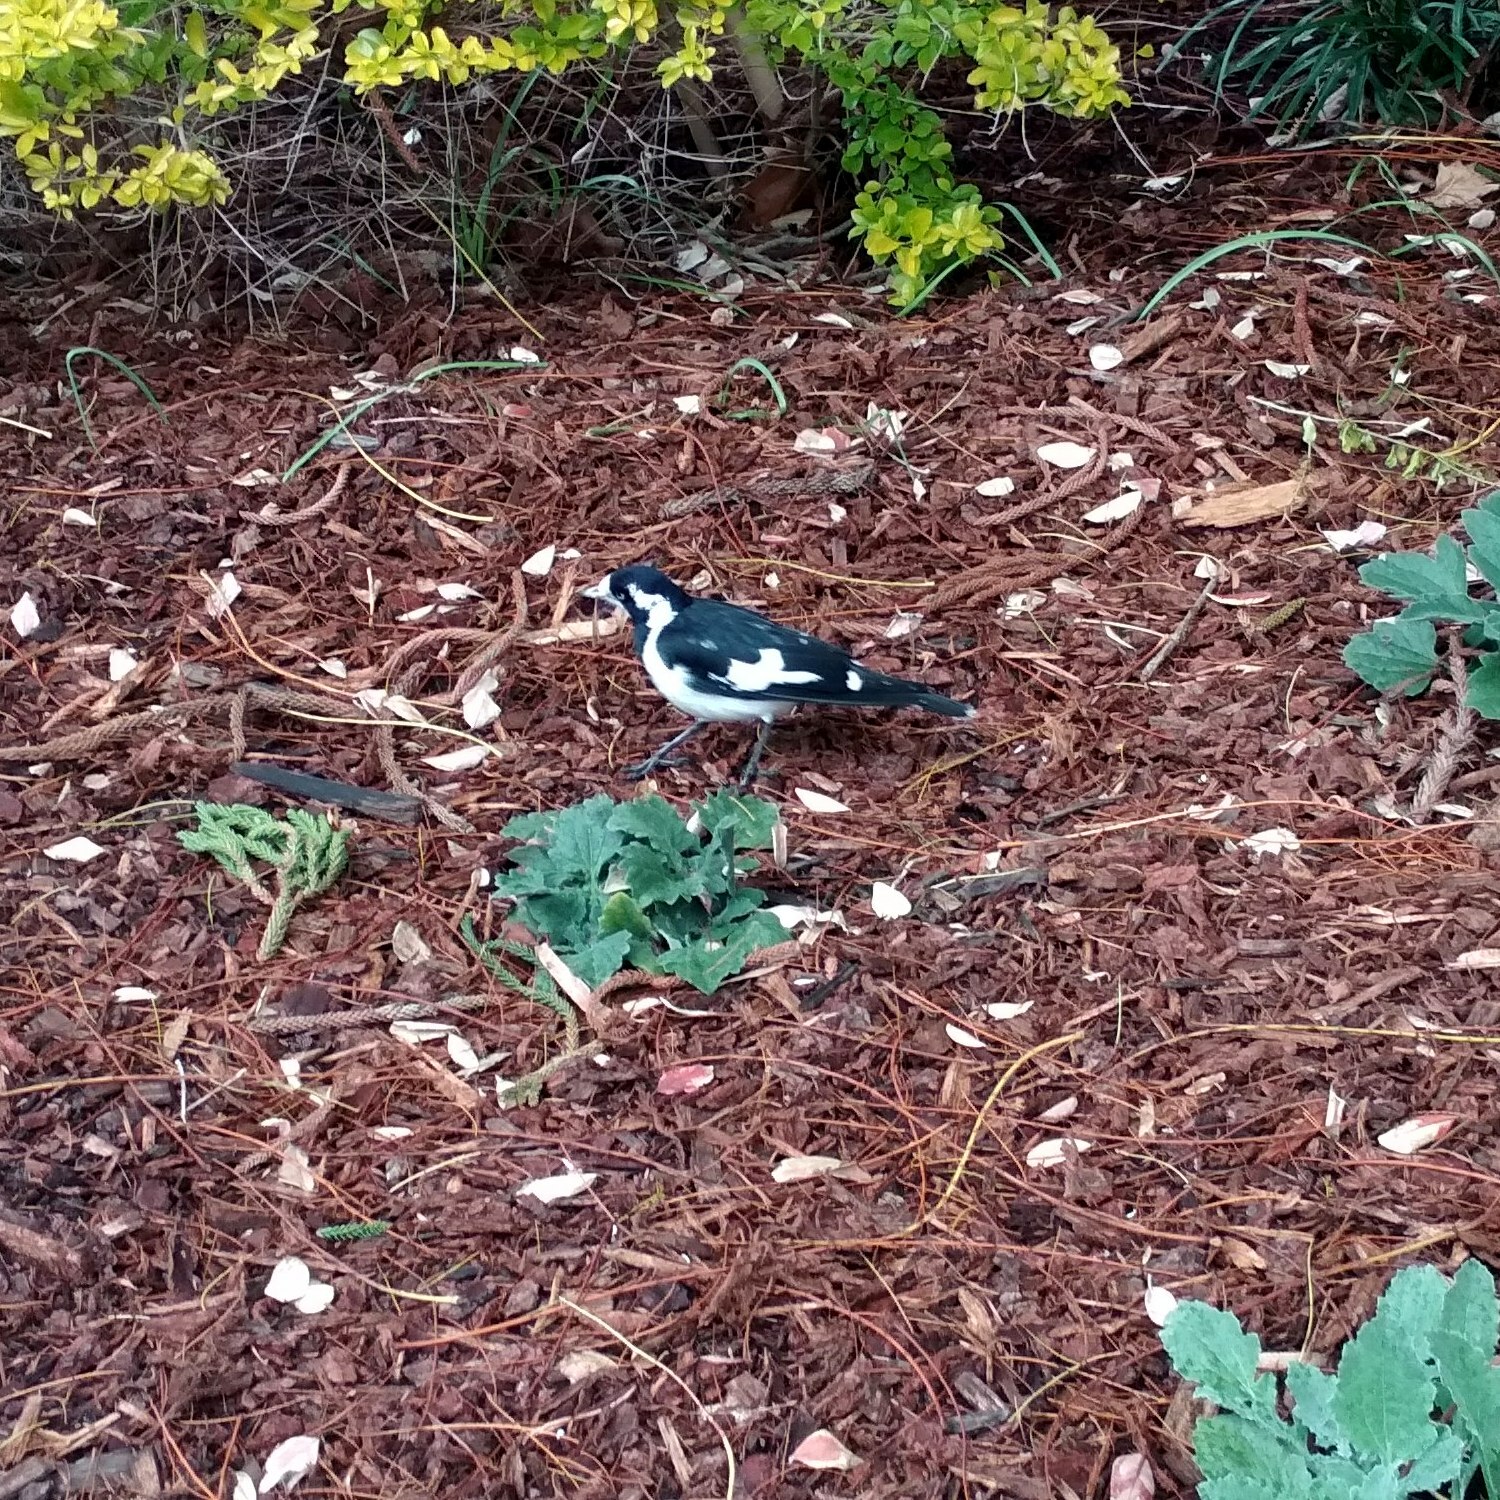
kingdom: Animalia
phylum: Chordata
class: Aves
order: Passeriformes
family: Monarchidae
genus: Grallina
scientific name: Grallina cyanoleuca
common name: Magpie-lark
